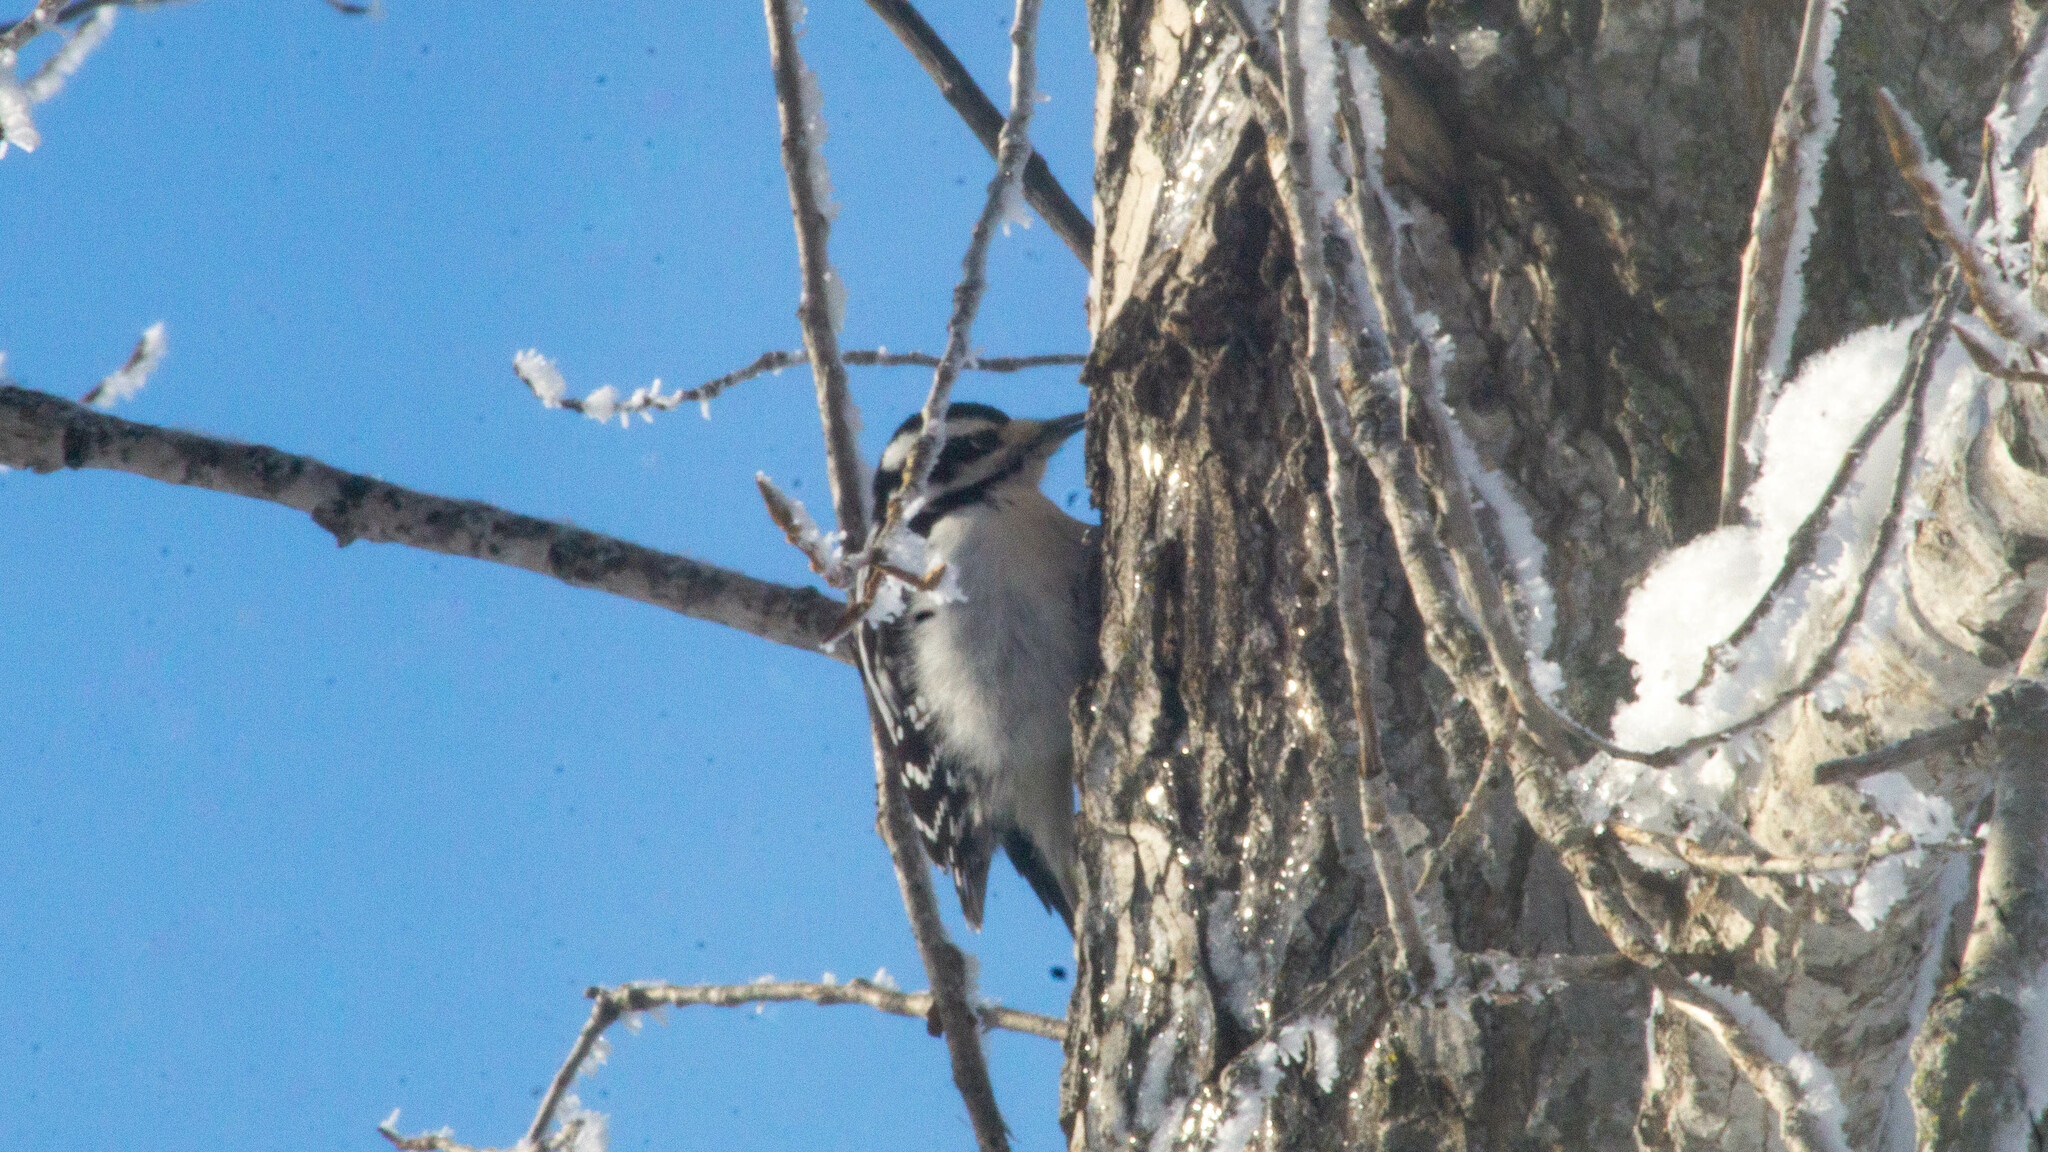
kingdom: Animalia
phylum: Chordata
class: Aves
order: Piciformes
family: Picidae
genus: Leuconotopicus
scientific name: Leuconotopicus villosus
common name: Hairy woodpecker
